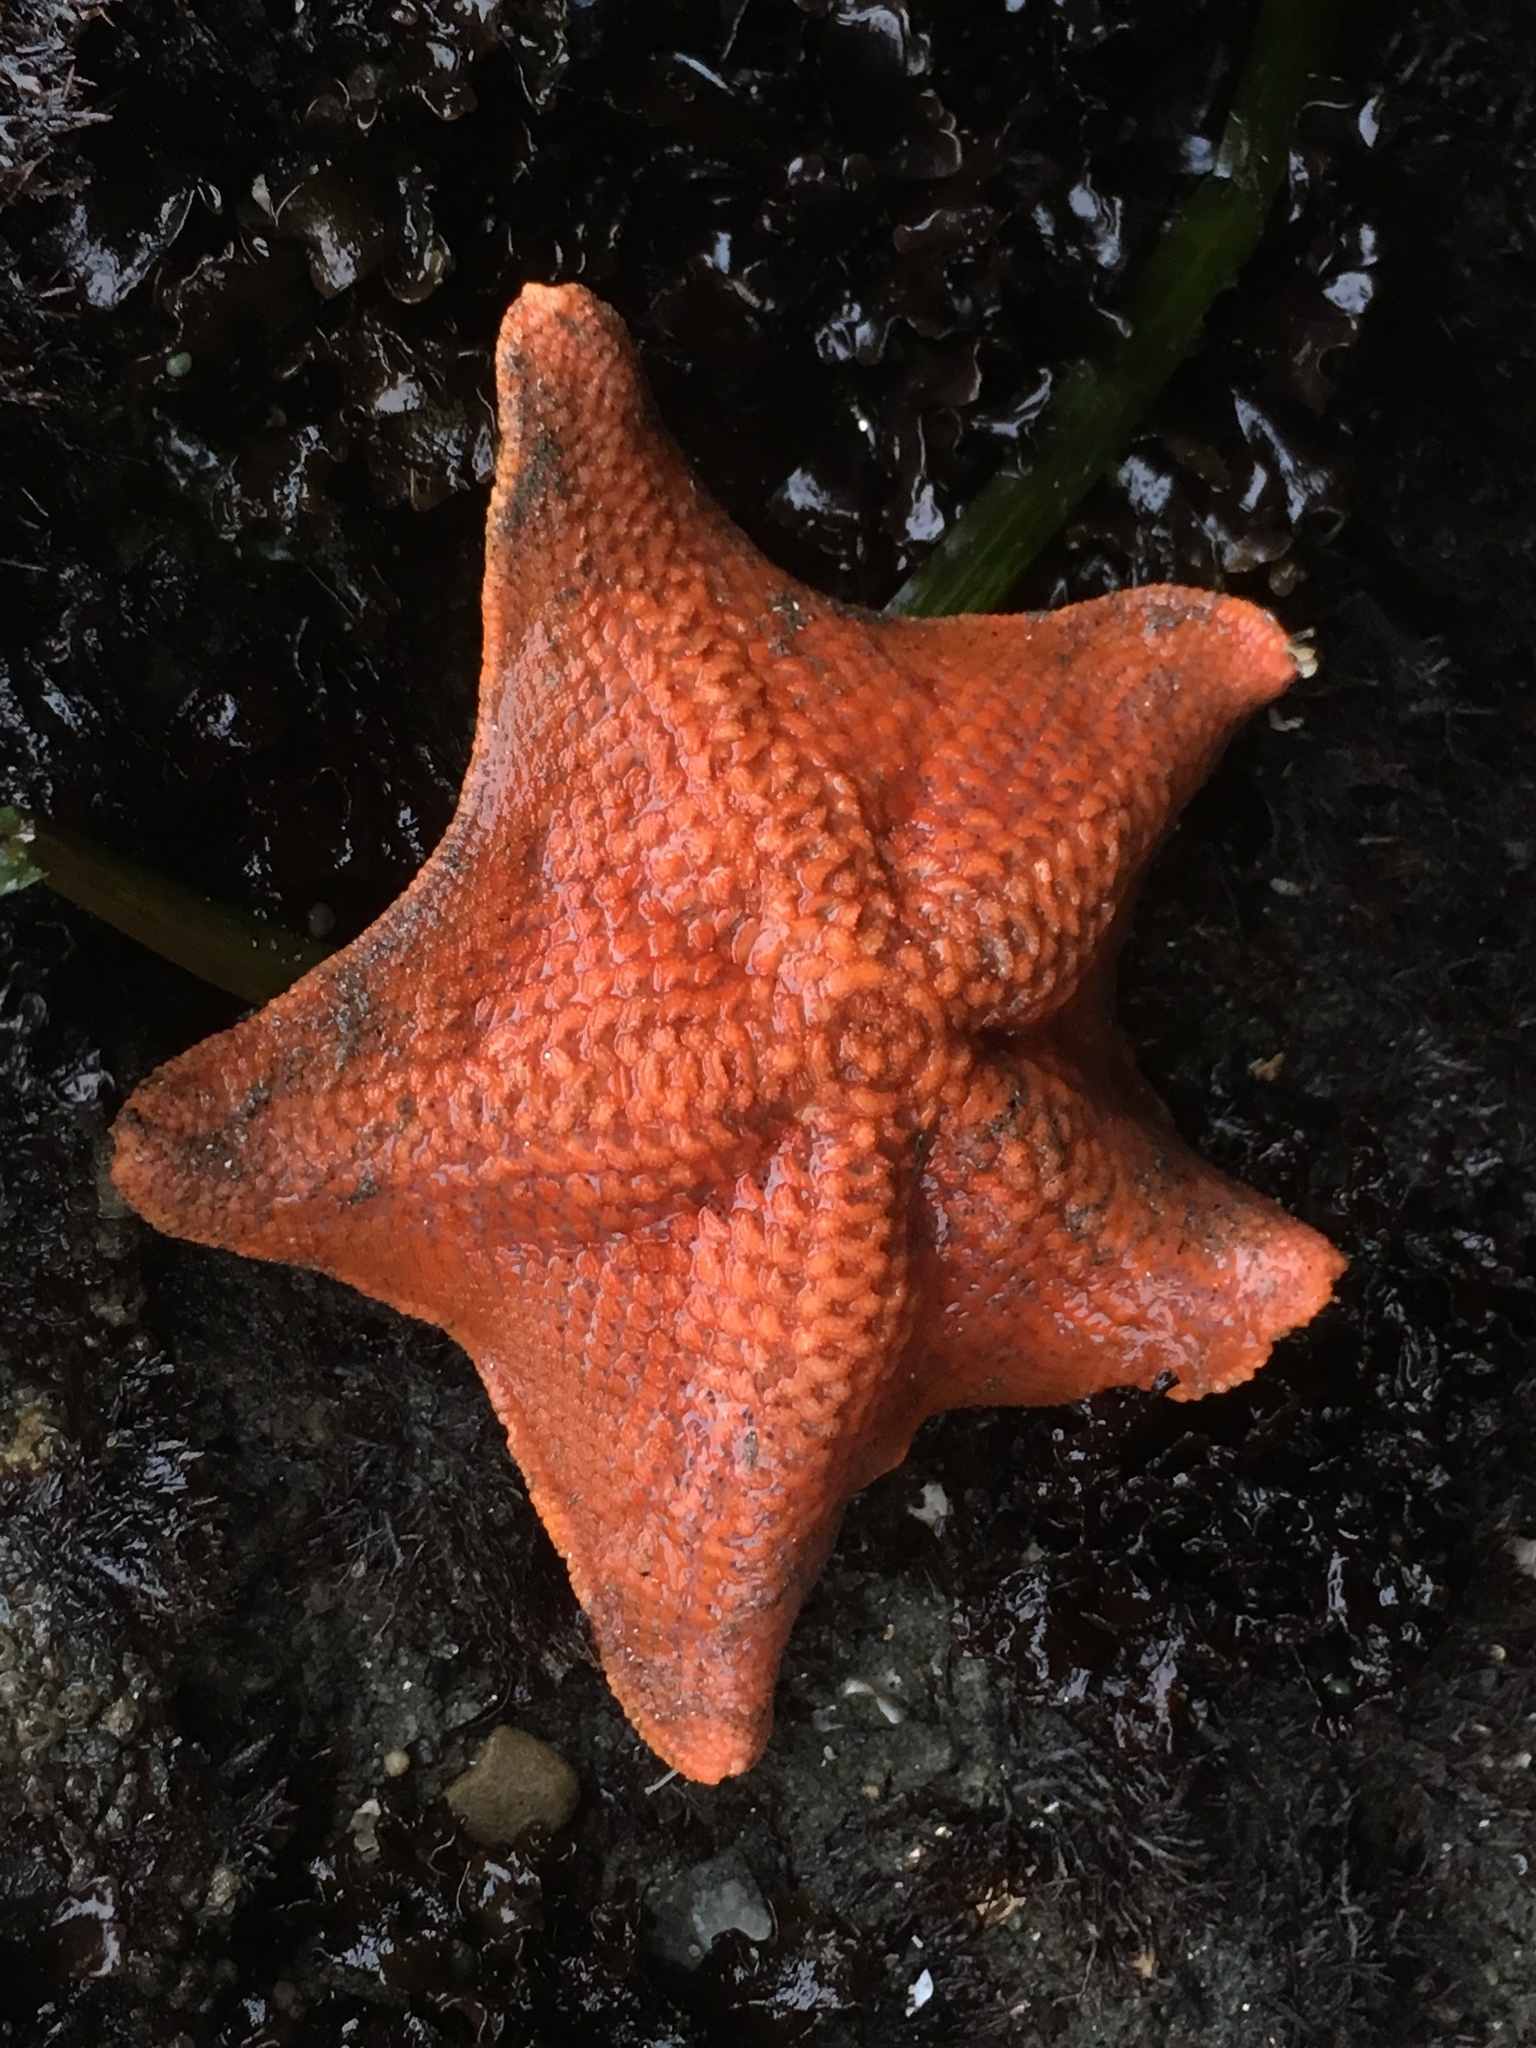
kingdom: Animalia
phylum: Echinodermata
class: Asteroidea
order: Valvatida
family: Asterinidae
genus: Patiria
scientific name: Patiria miniata
